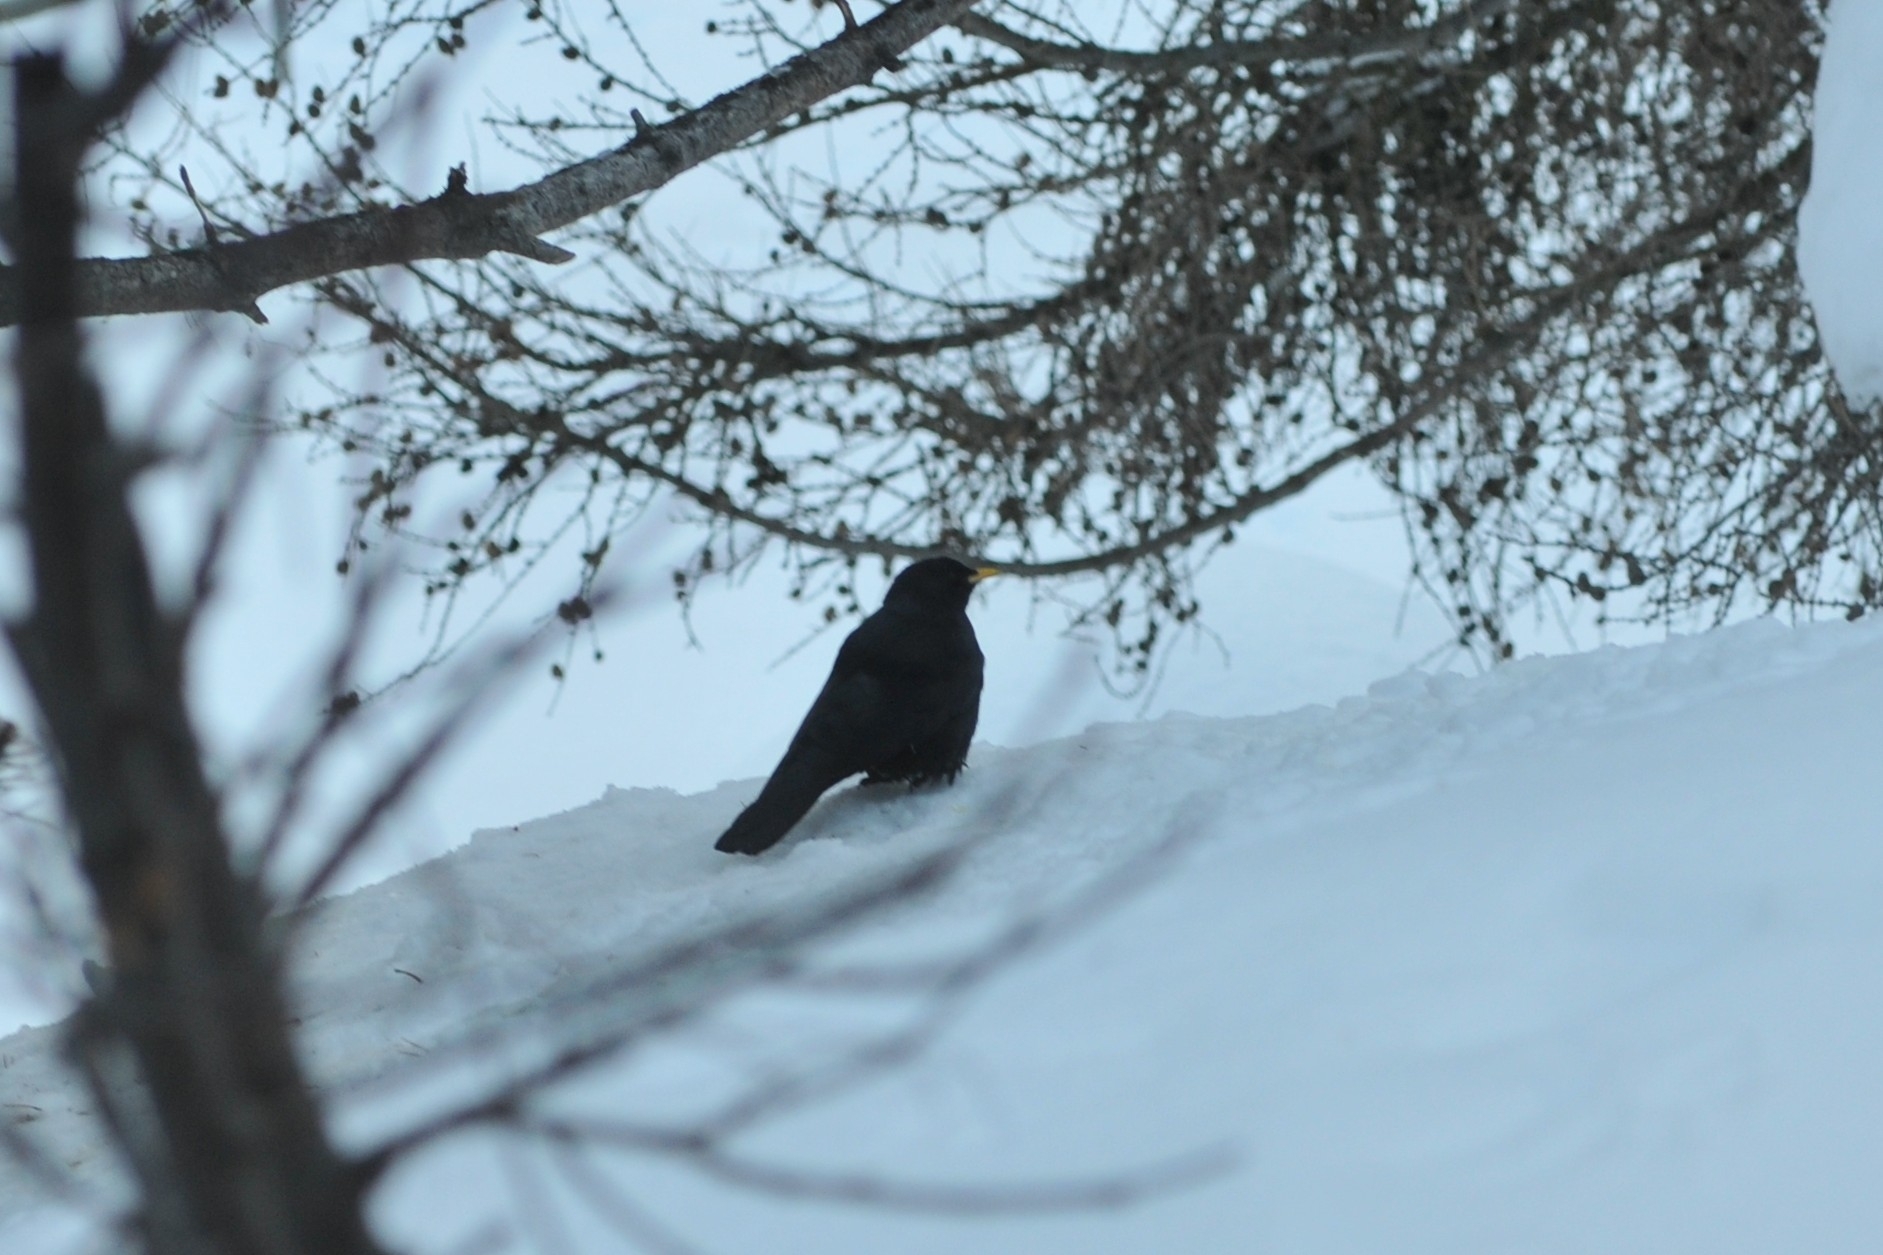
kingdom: Animalia
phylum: Chordata
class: Aves
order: Passeriformes
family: Corvidae
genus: Pyrrhocorax
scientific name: Pyrrhocorax graculus
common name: Alpine chough
